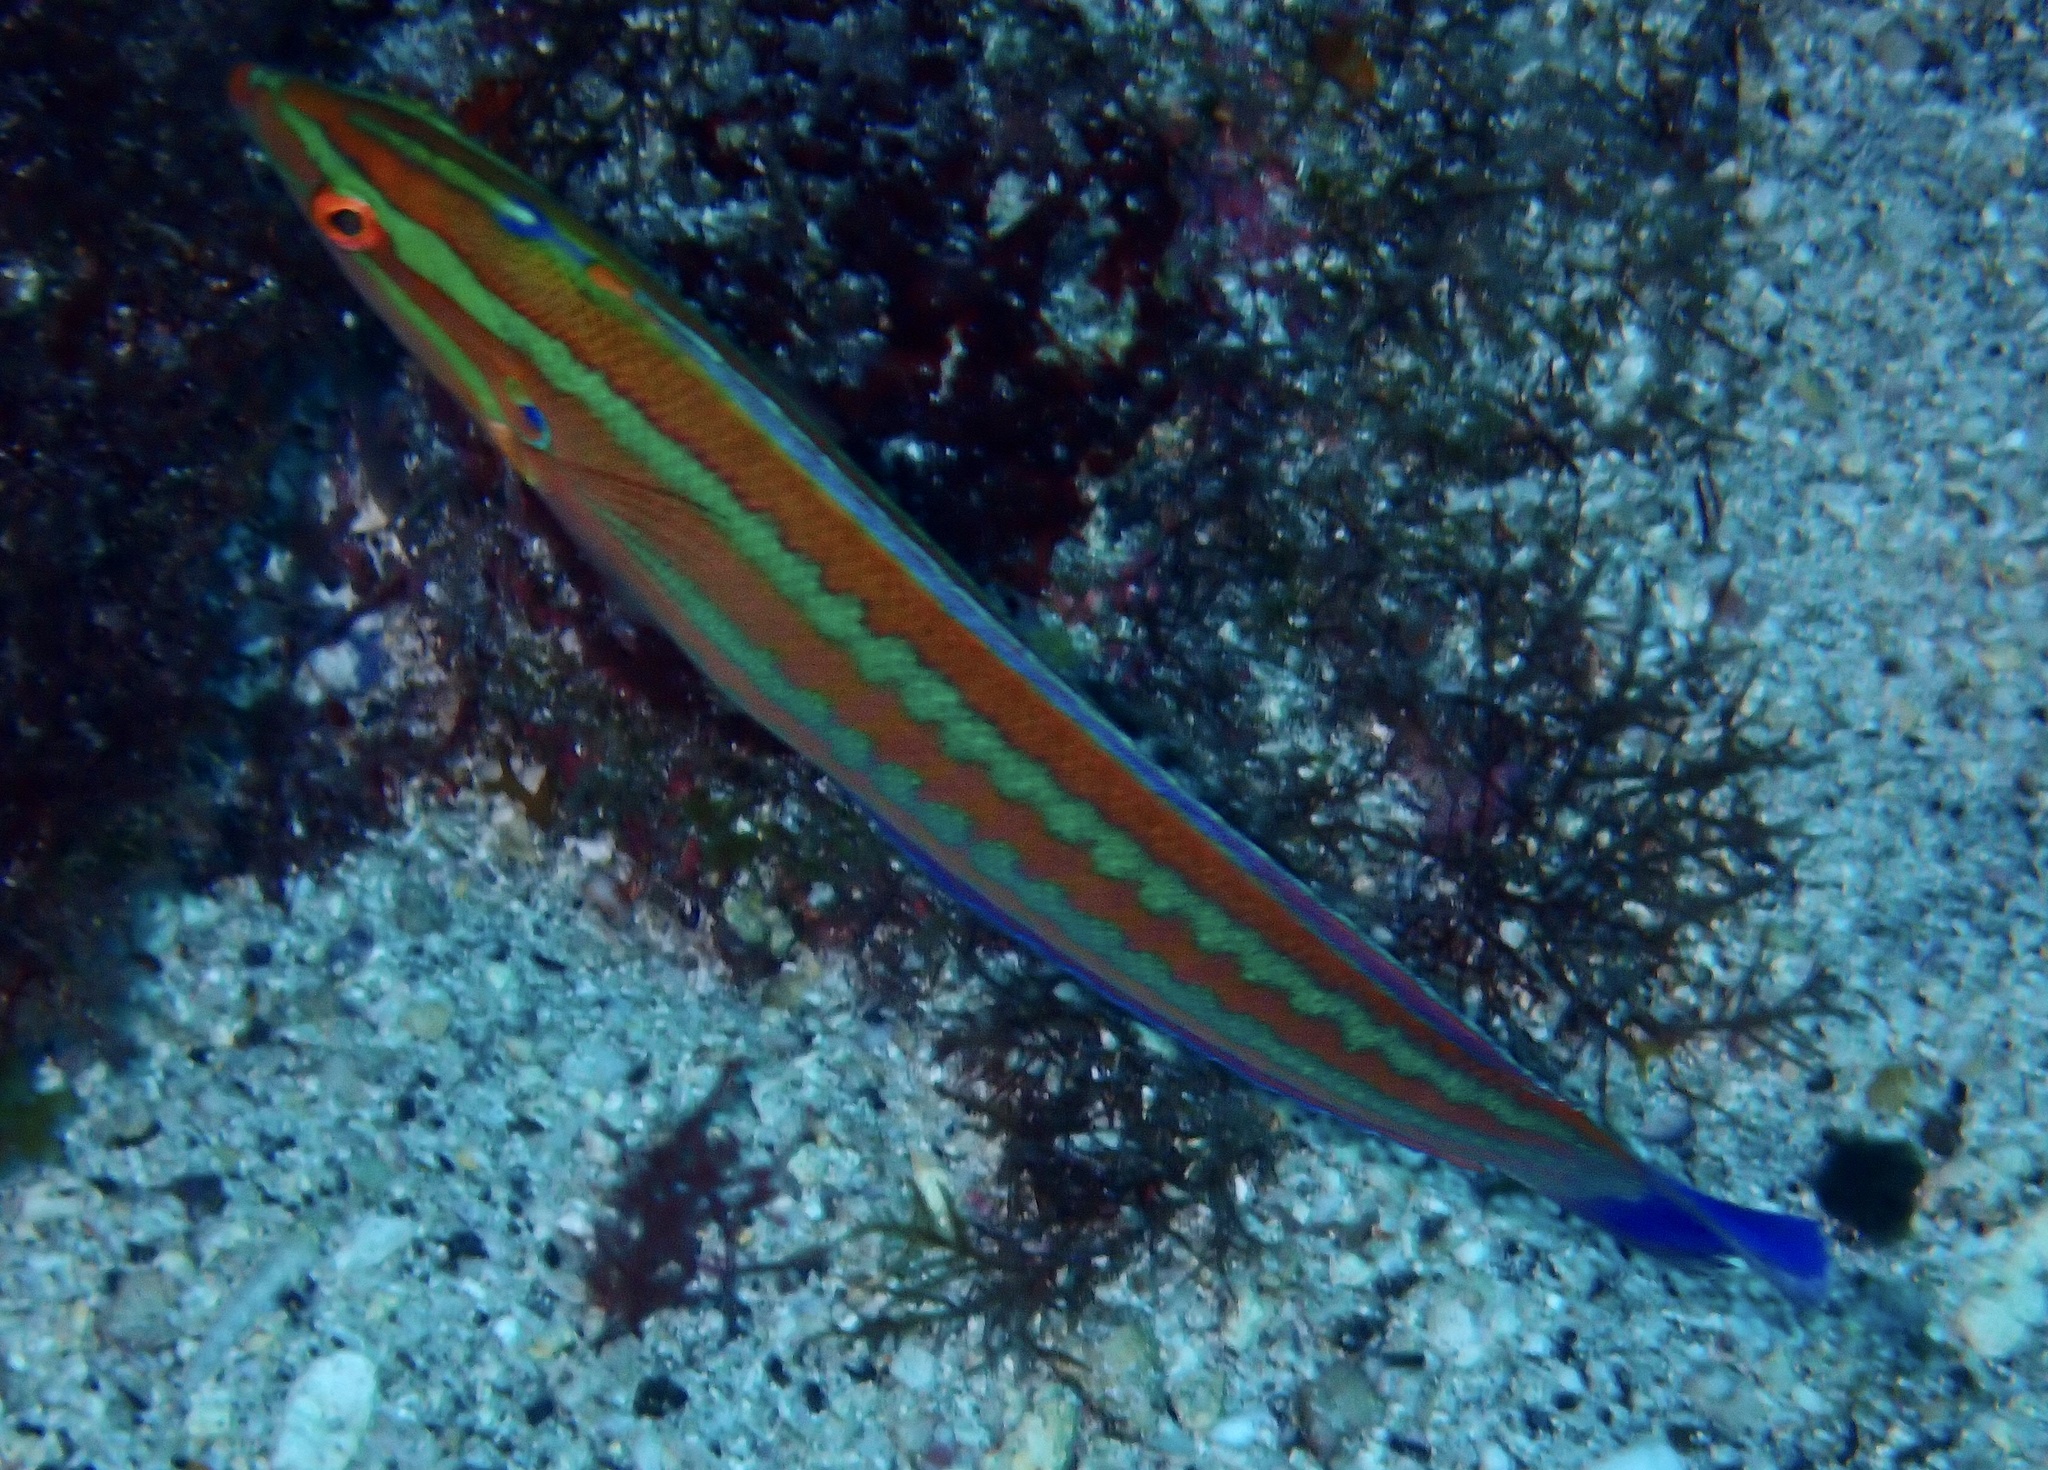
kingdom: Animalia
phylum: Chordata
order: Perciformes
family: Labridae
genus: Coris
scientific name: Coris atlantica
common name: Rainbow wrasse
